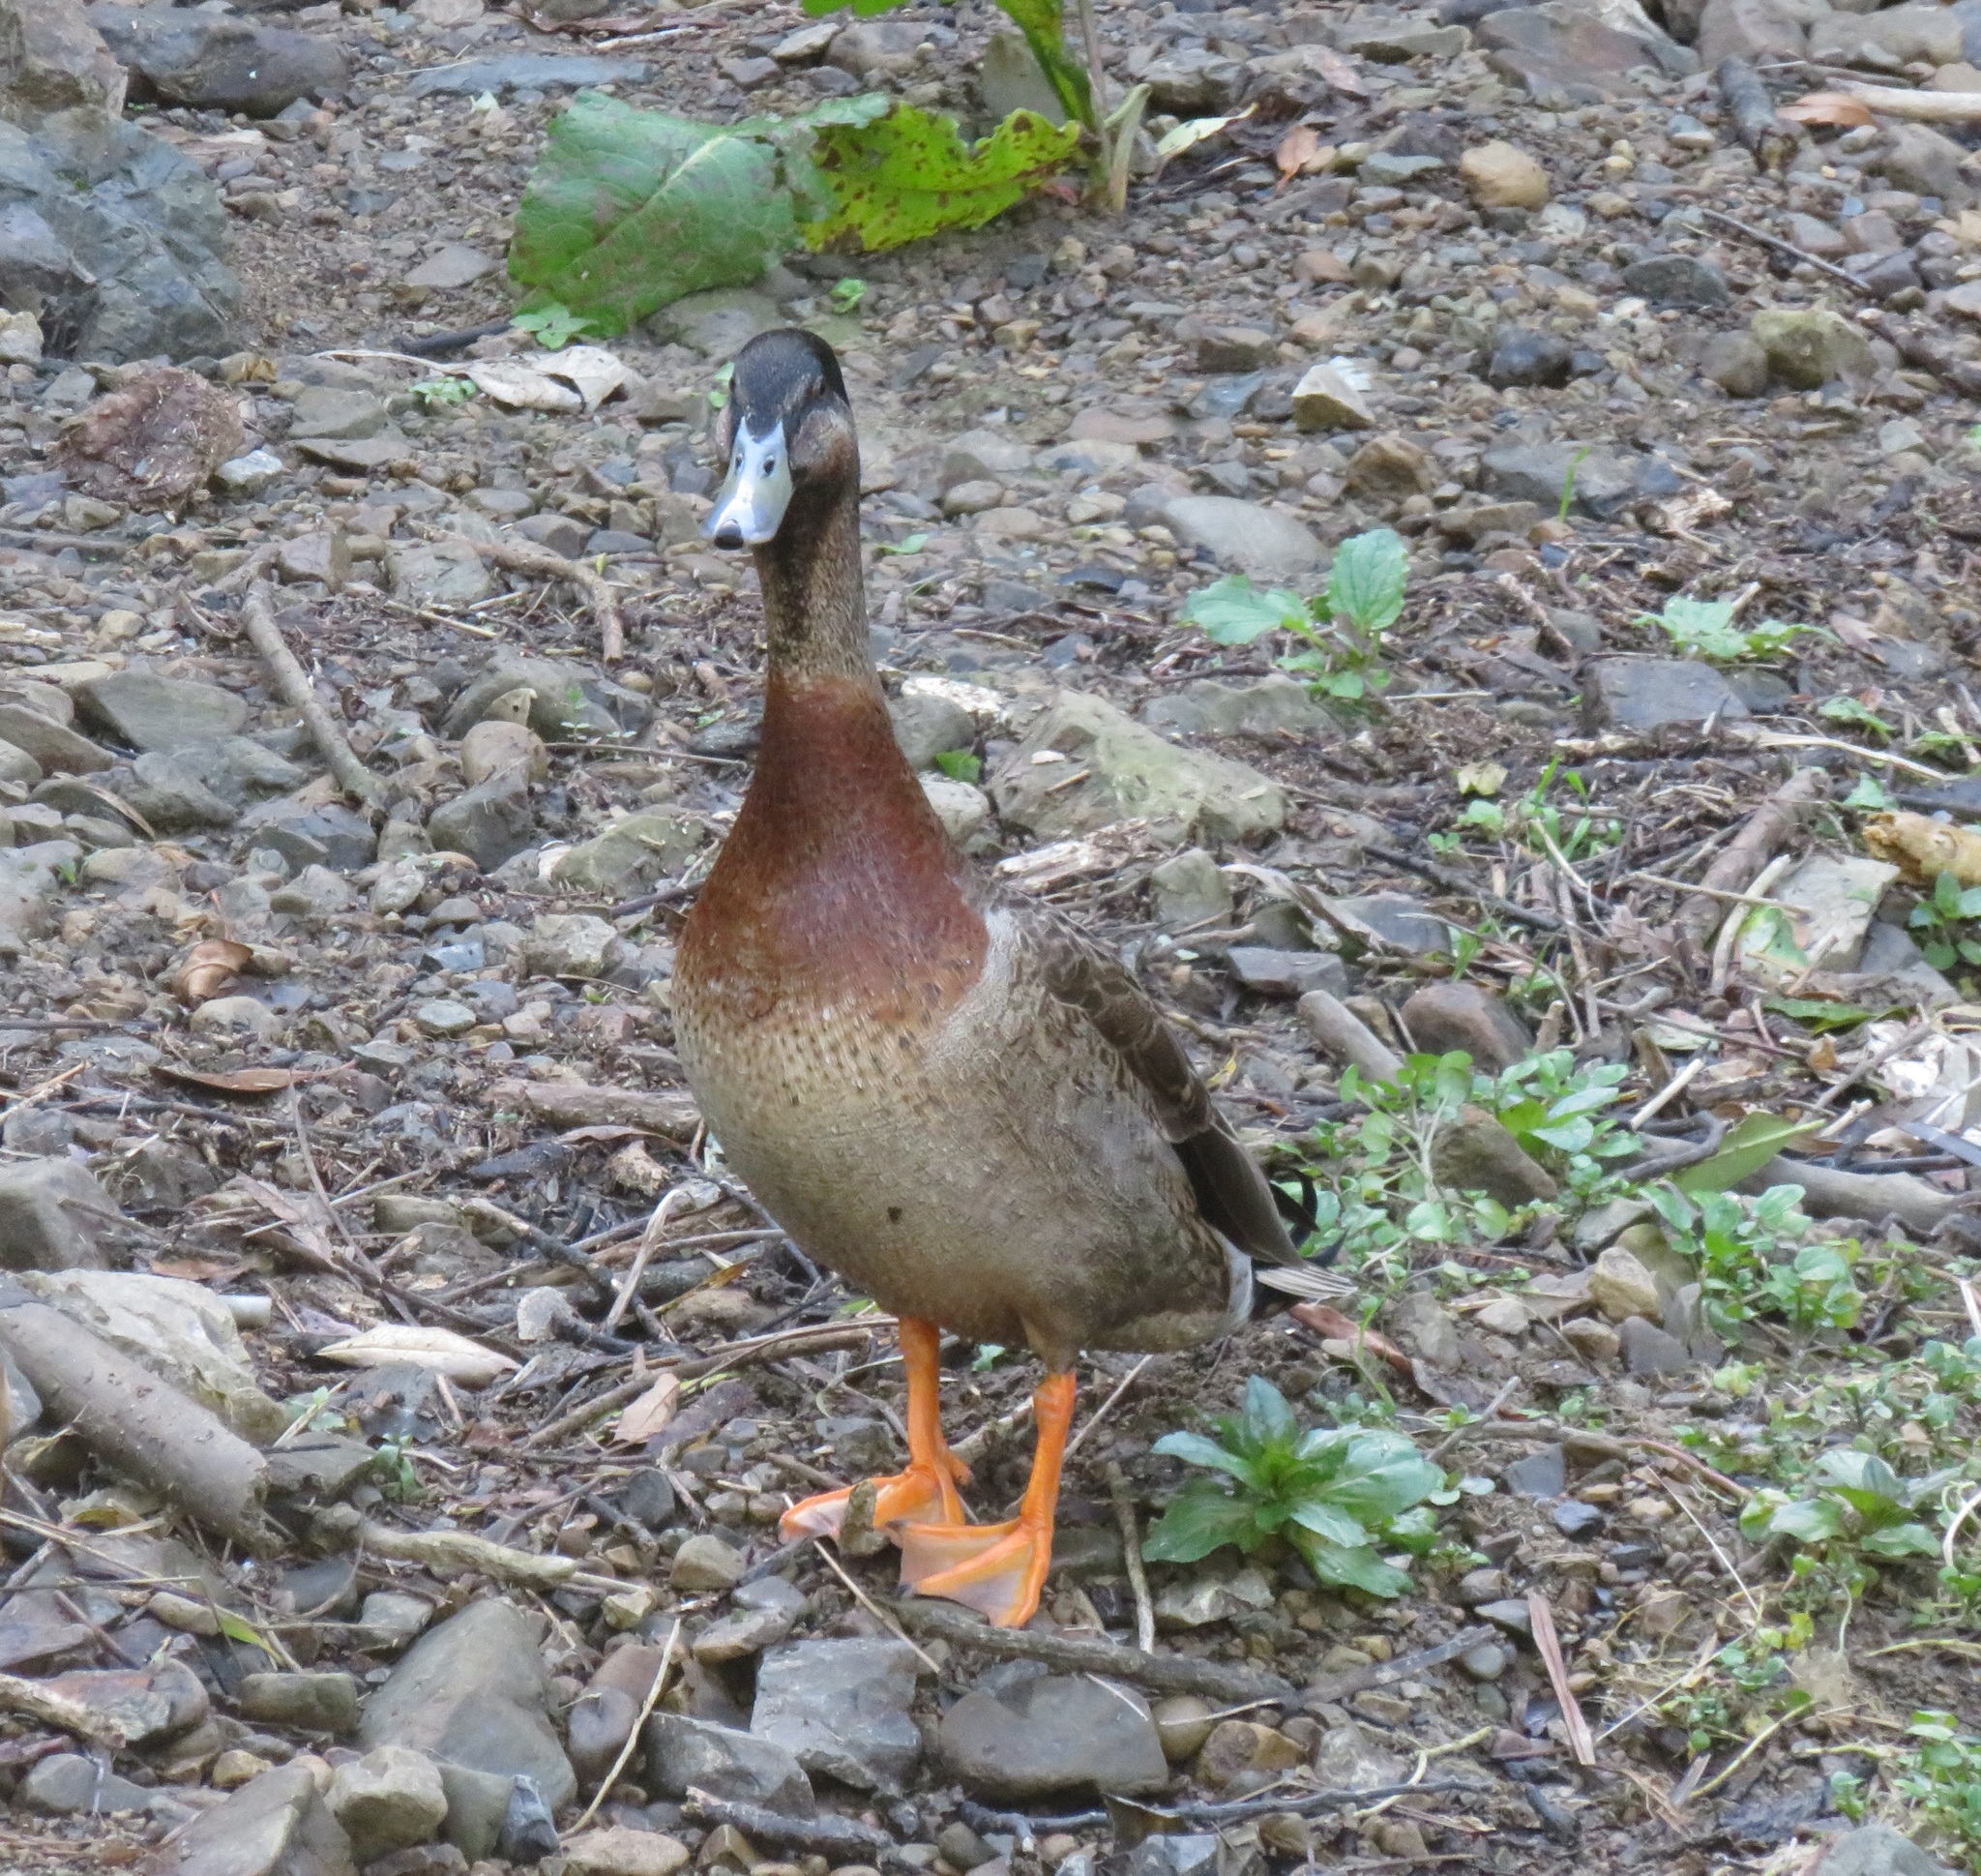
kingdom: Animalia
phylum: Chordata
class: Aves
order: Anseriformes
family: Anatidae
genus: Anas
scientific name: Anas
